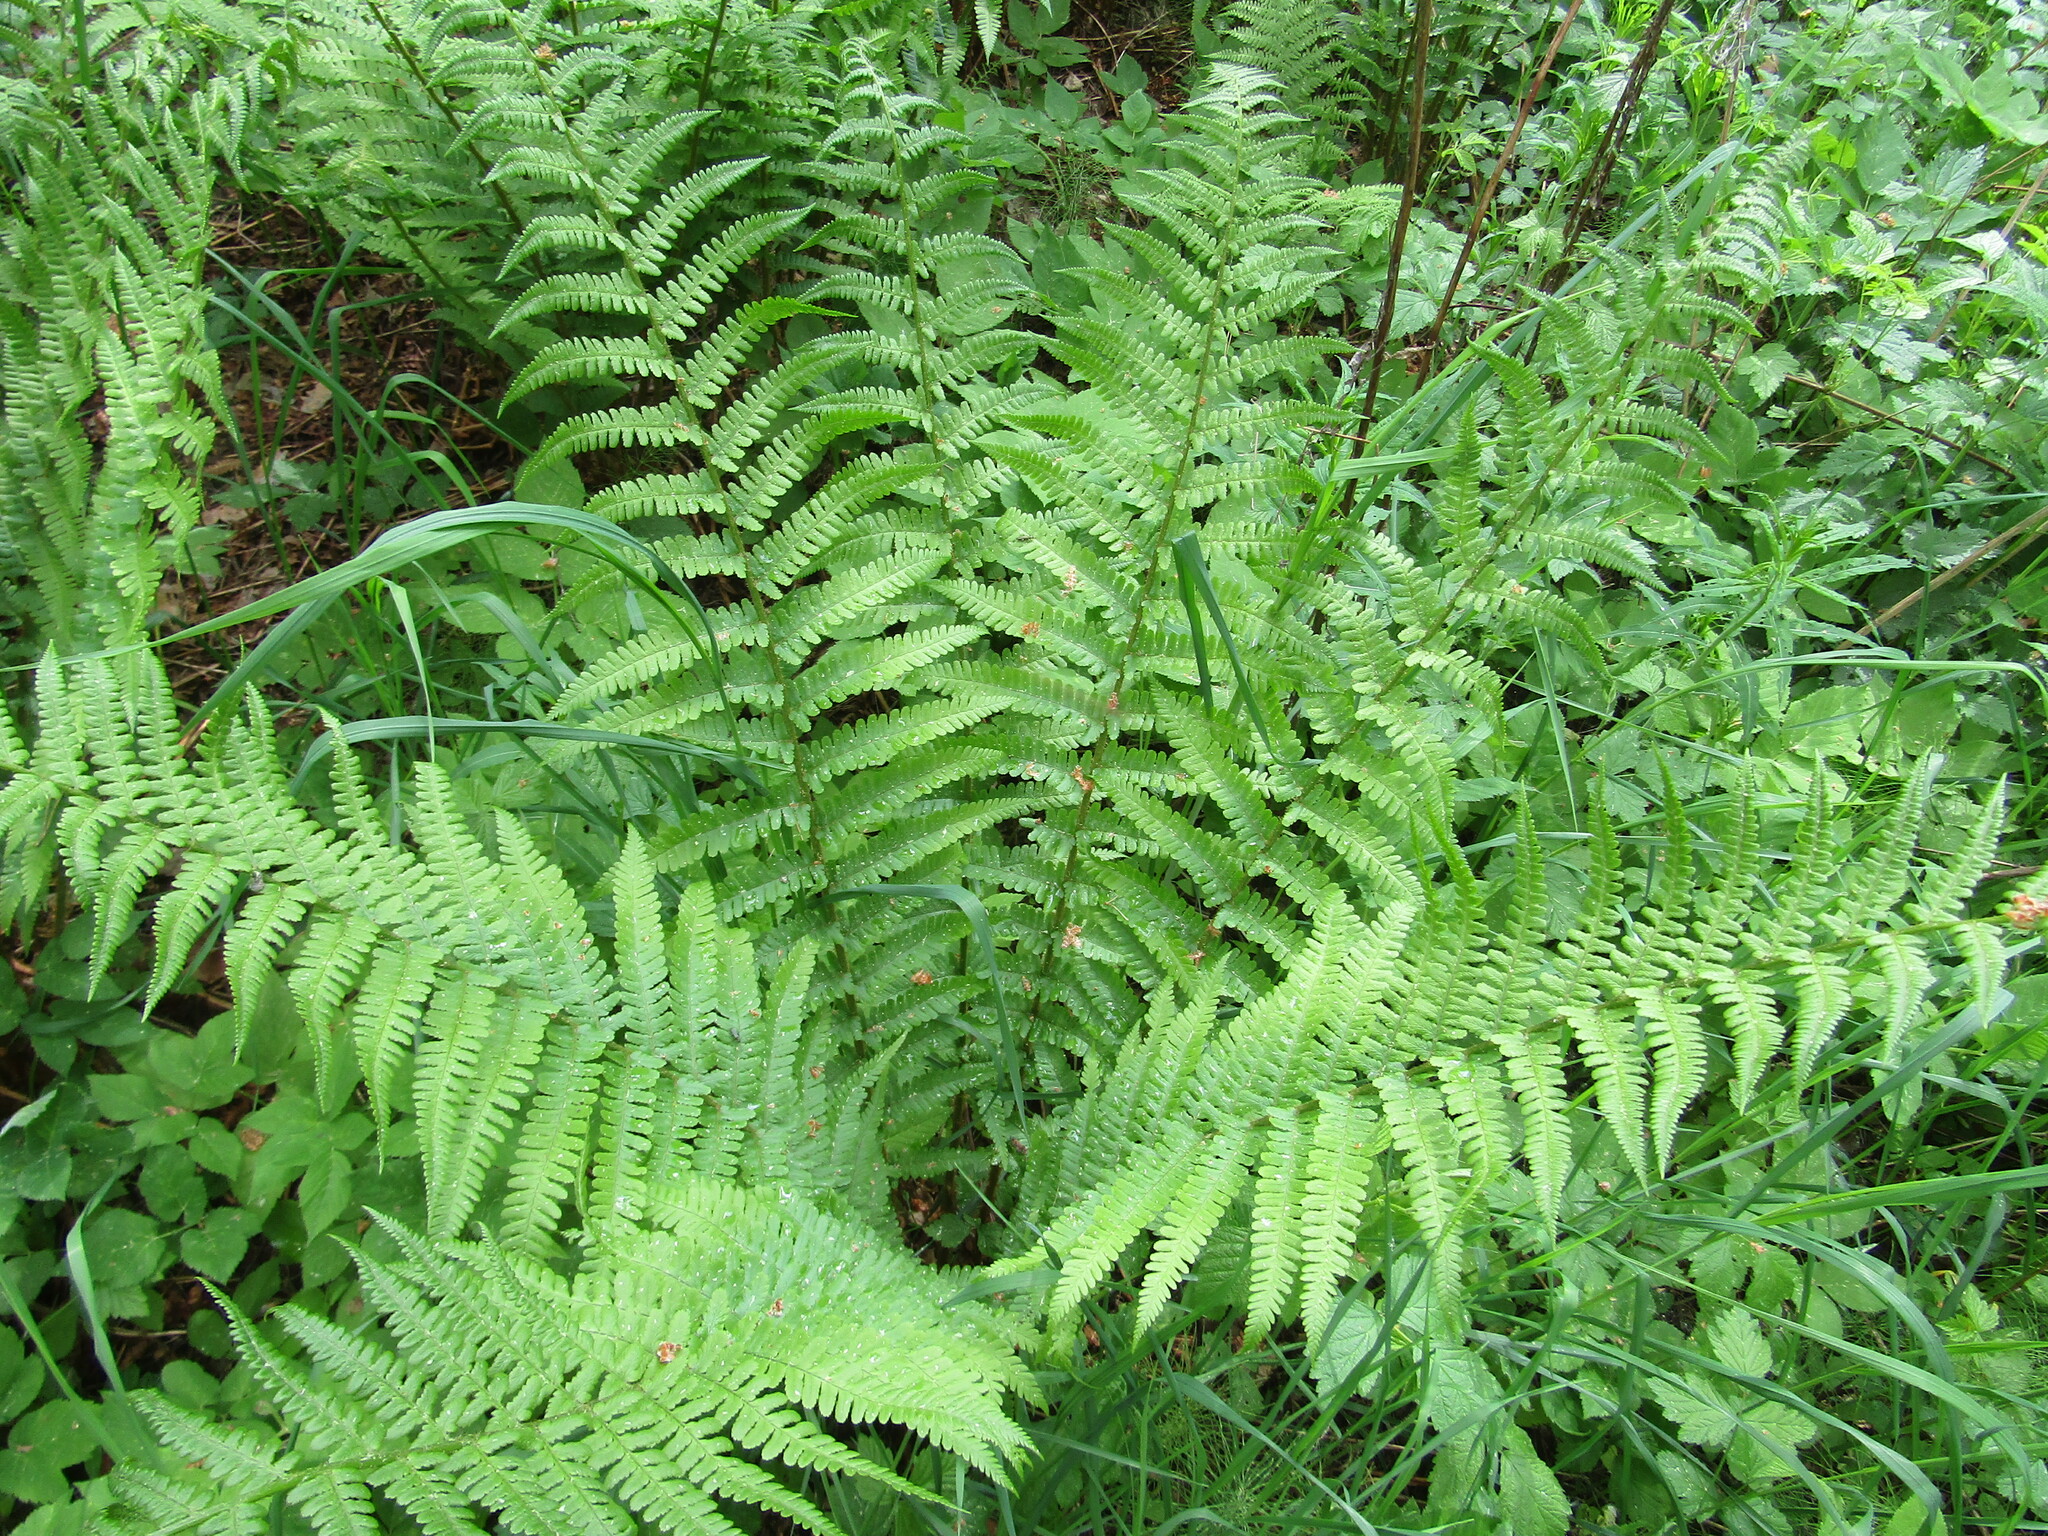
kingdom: Plantae
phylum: Tracheophyta
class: Polypodiopsida
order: Polypodiales
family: Dryopteridaceae
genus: Dryopteris
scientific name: Dryopteris filix-mas
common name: Male fern
